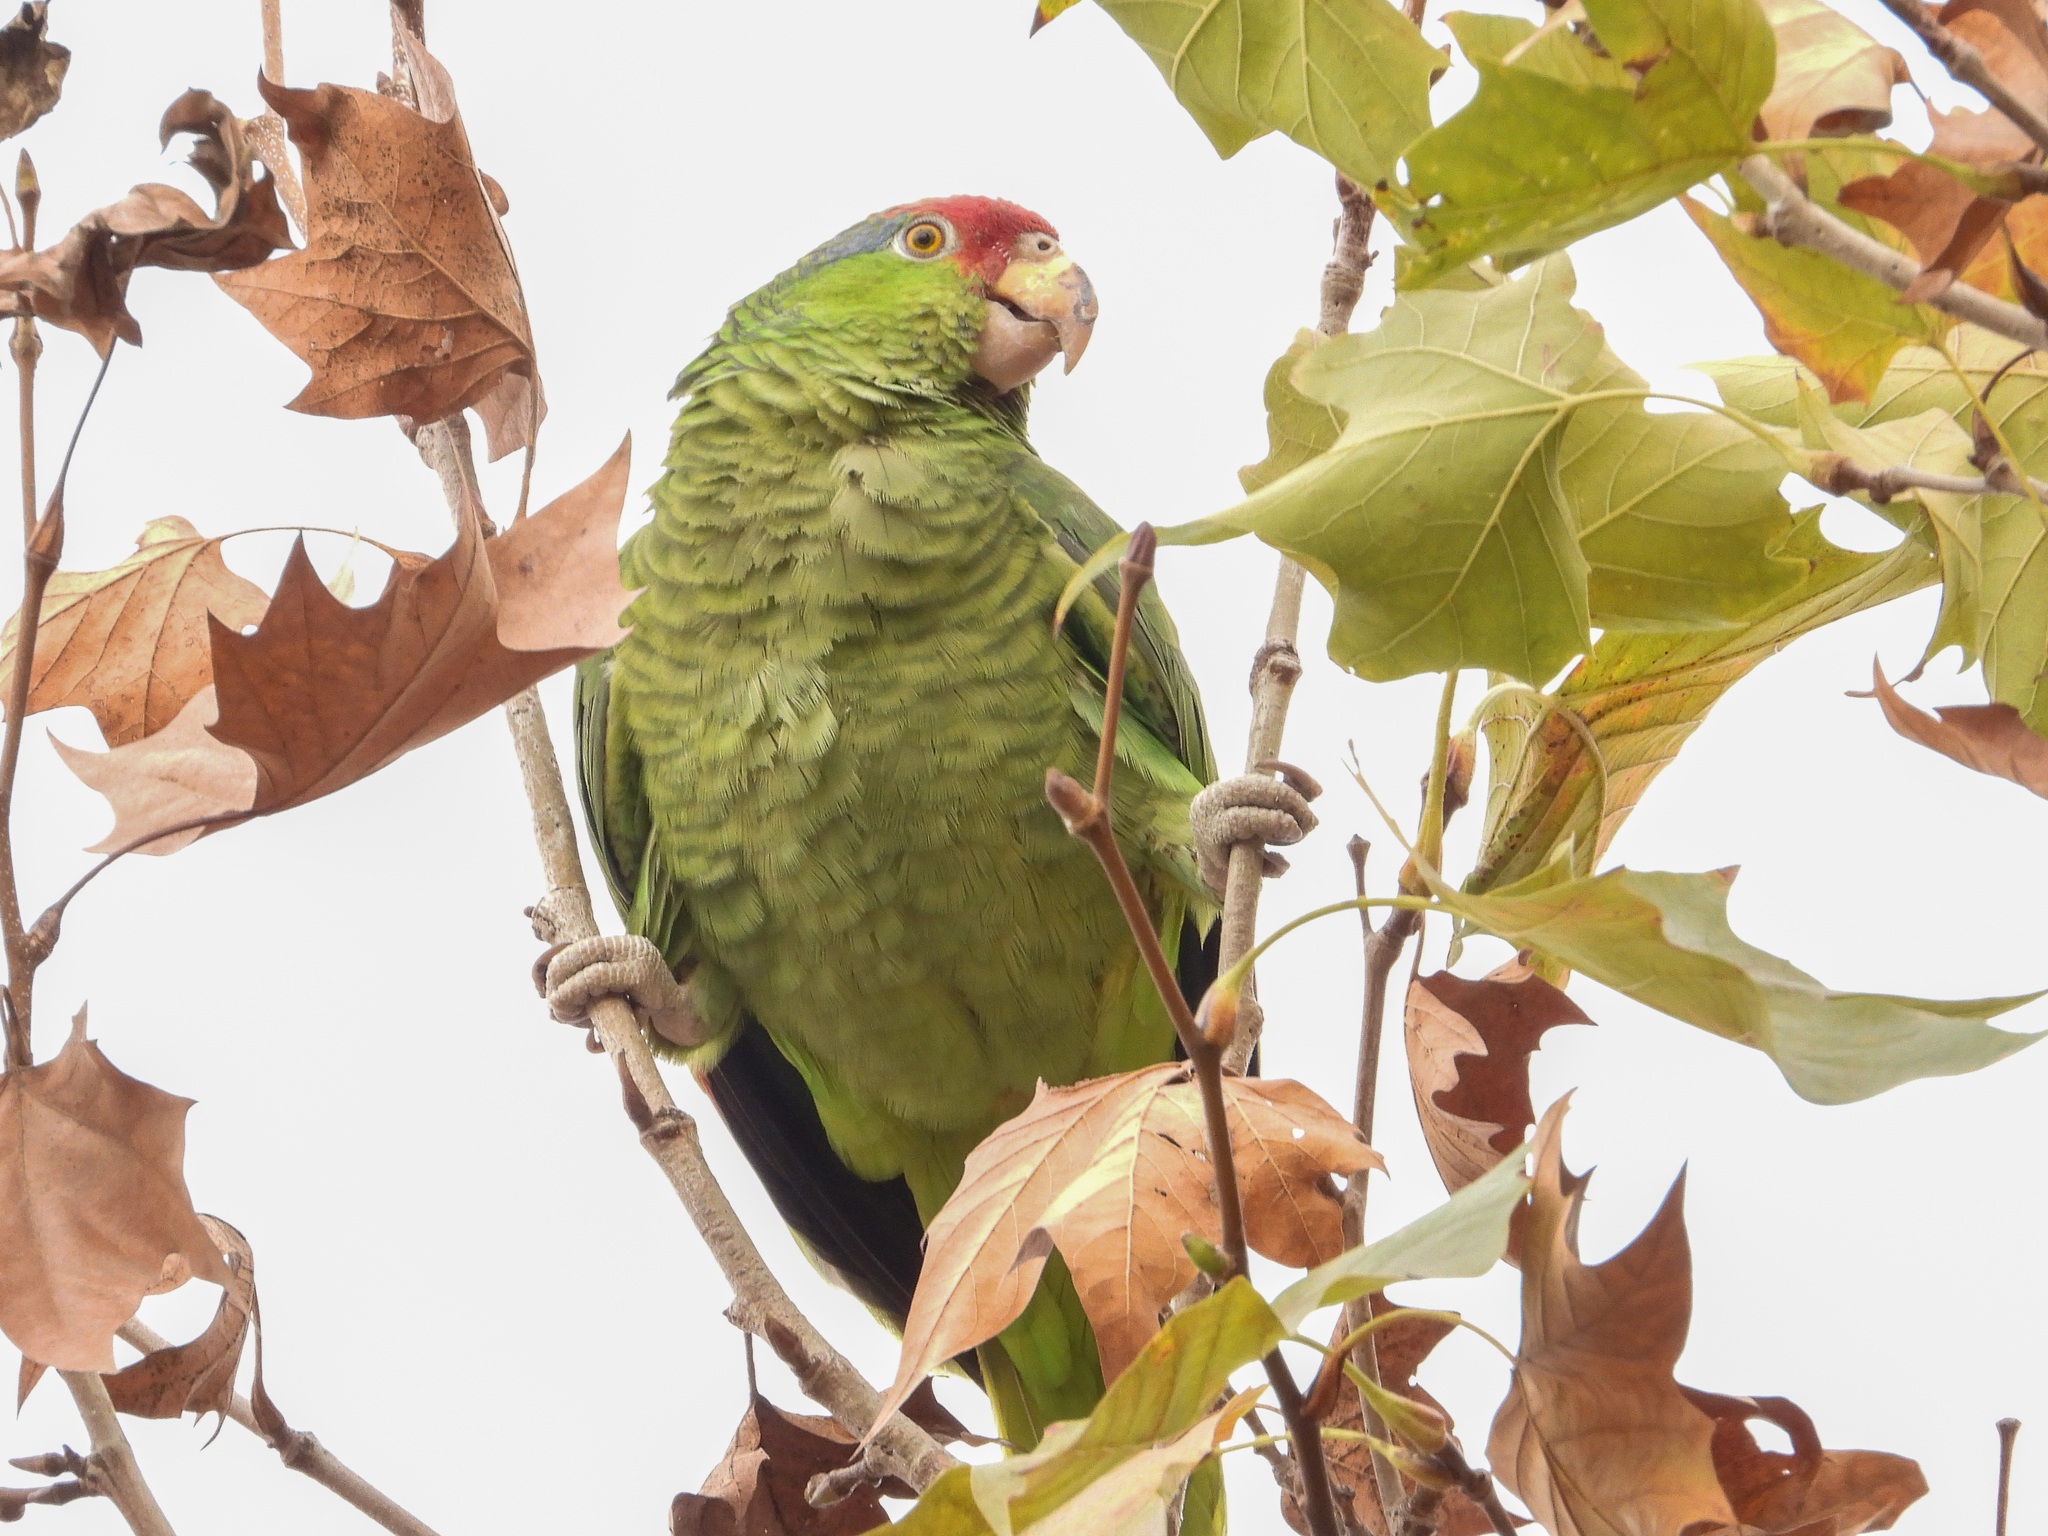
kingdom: Animalia
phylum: Chordata
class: Aves
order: Psittaciformes
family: Psittacidae
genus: Amazona
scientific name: Amazona viridigenalis
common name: Red-crowned amazon
